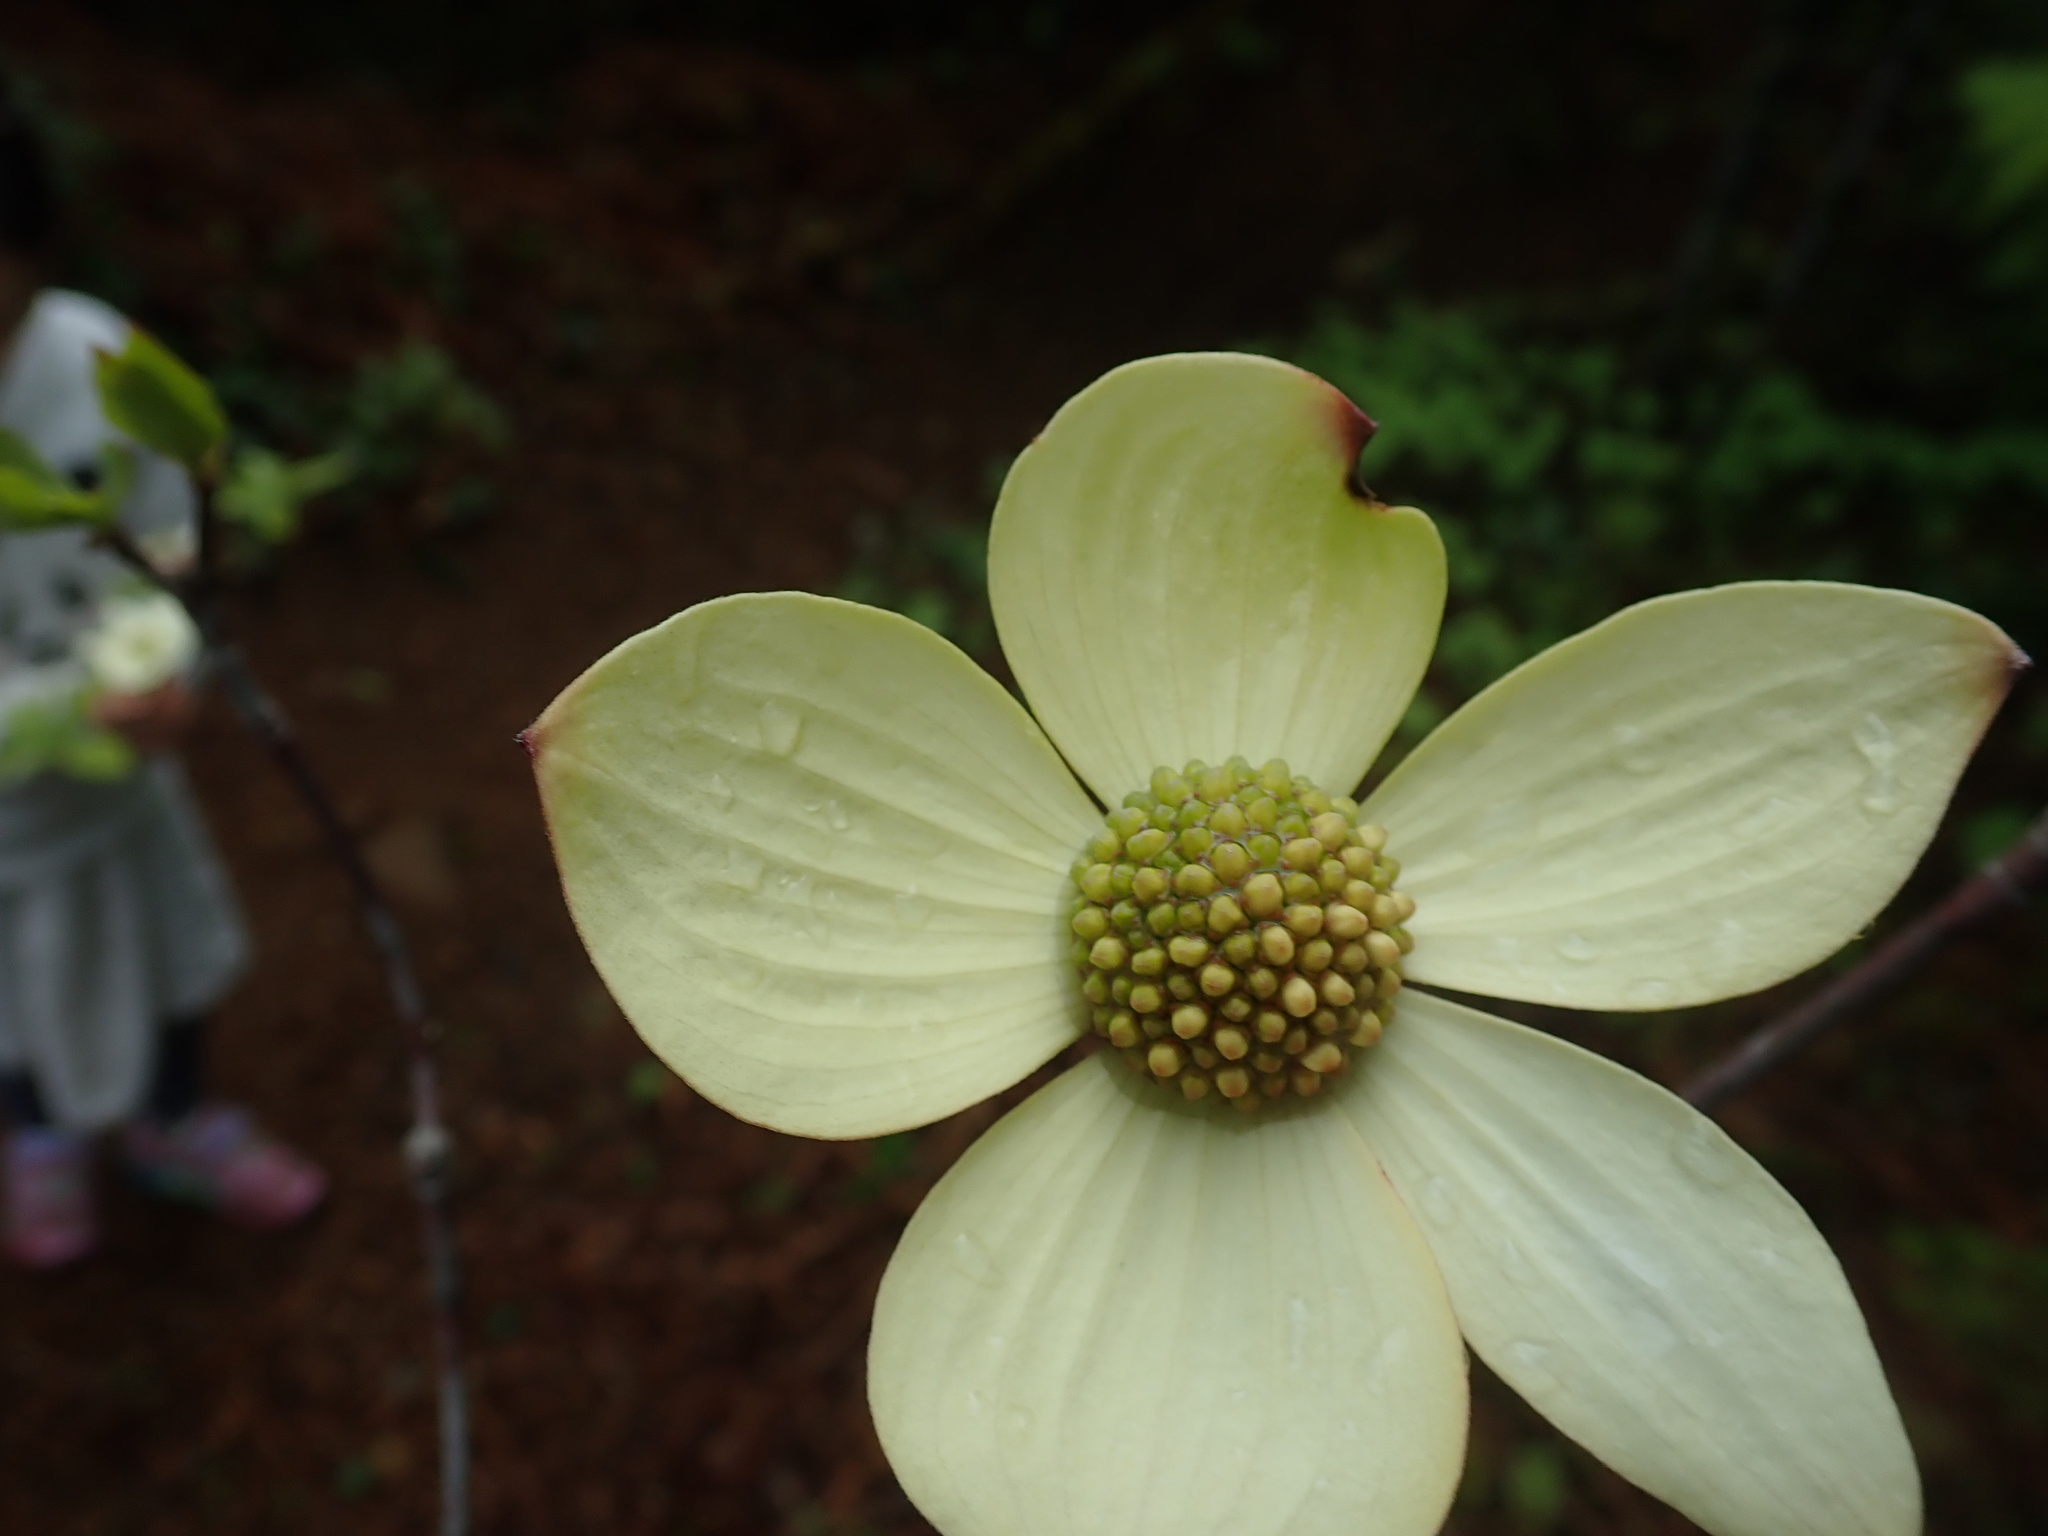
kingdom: Plantae
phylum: Tracheophyta
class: Magnoliopsida
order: Cornales
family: Cornaceae
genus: Cornus
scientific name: Cornus nuttallii
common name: Pacific dogwood
